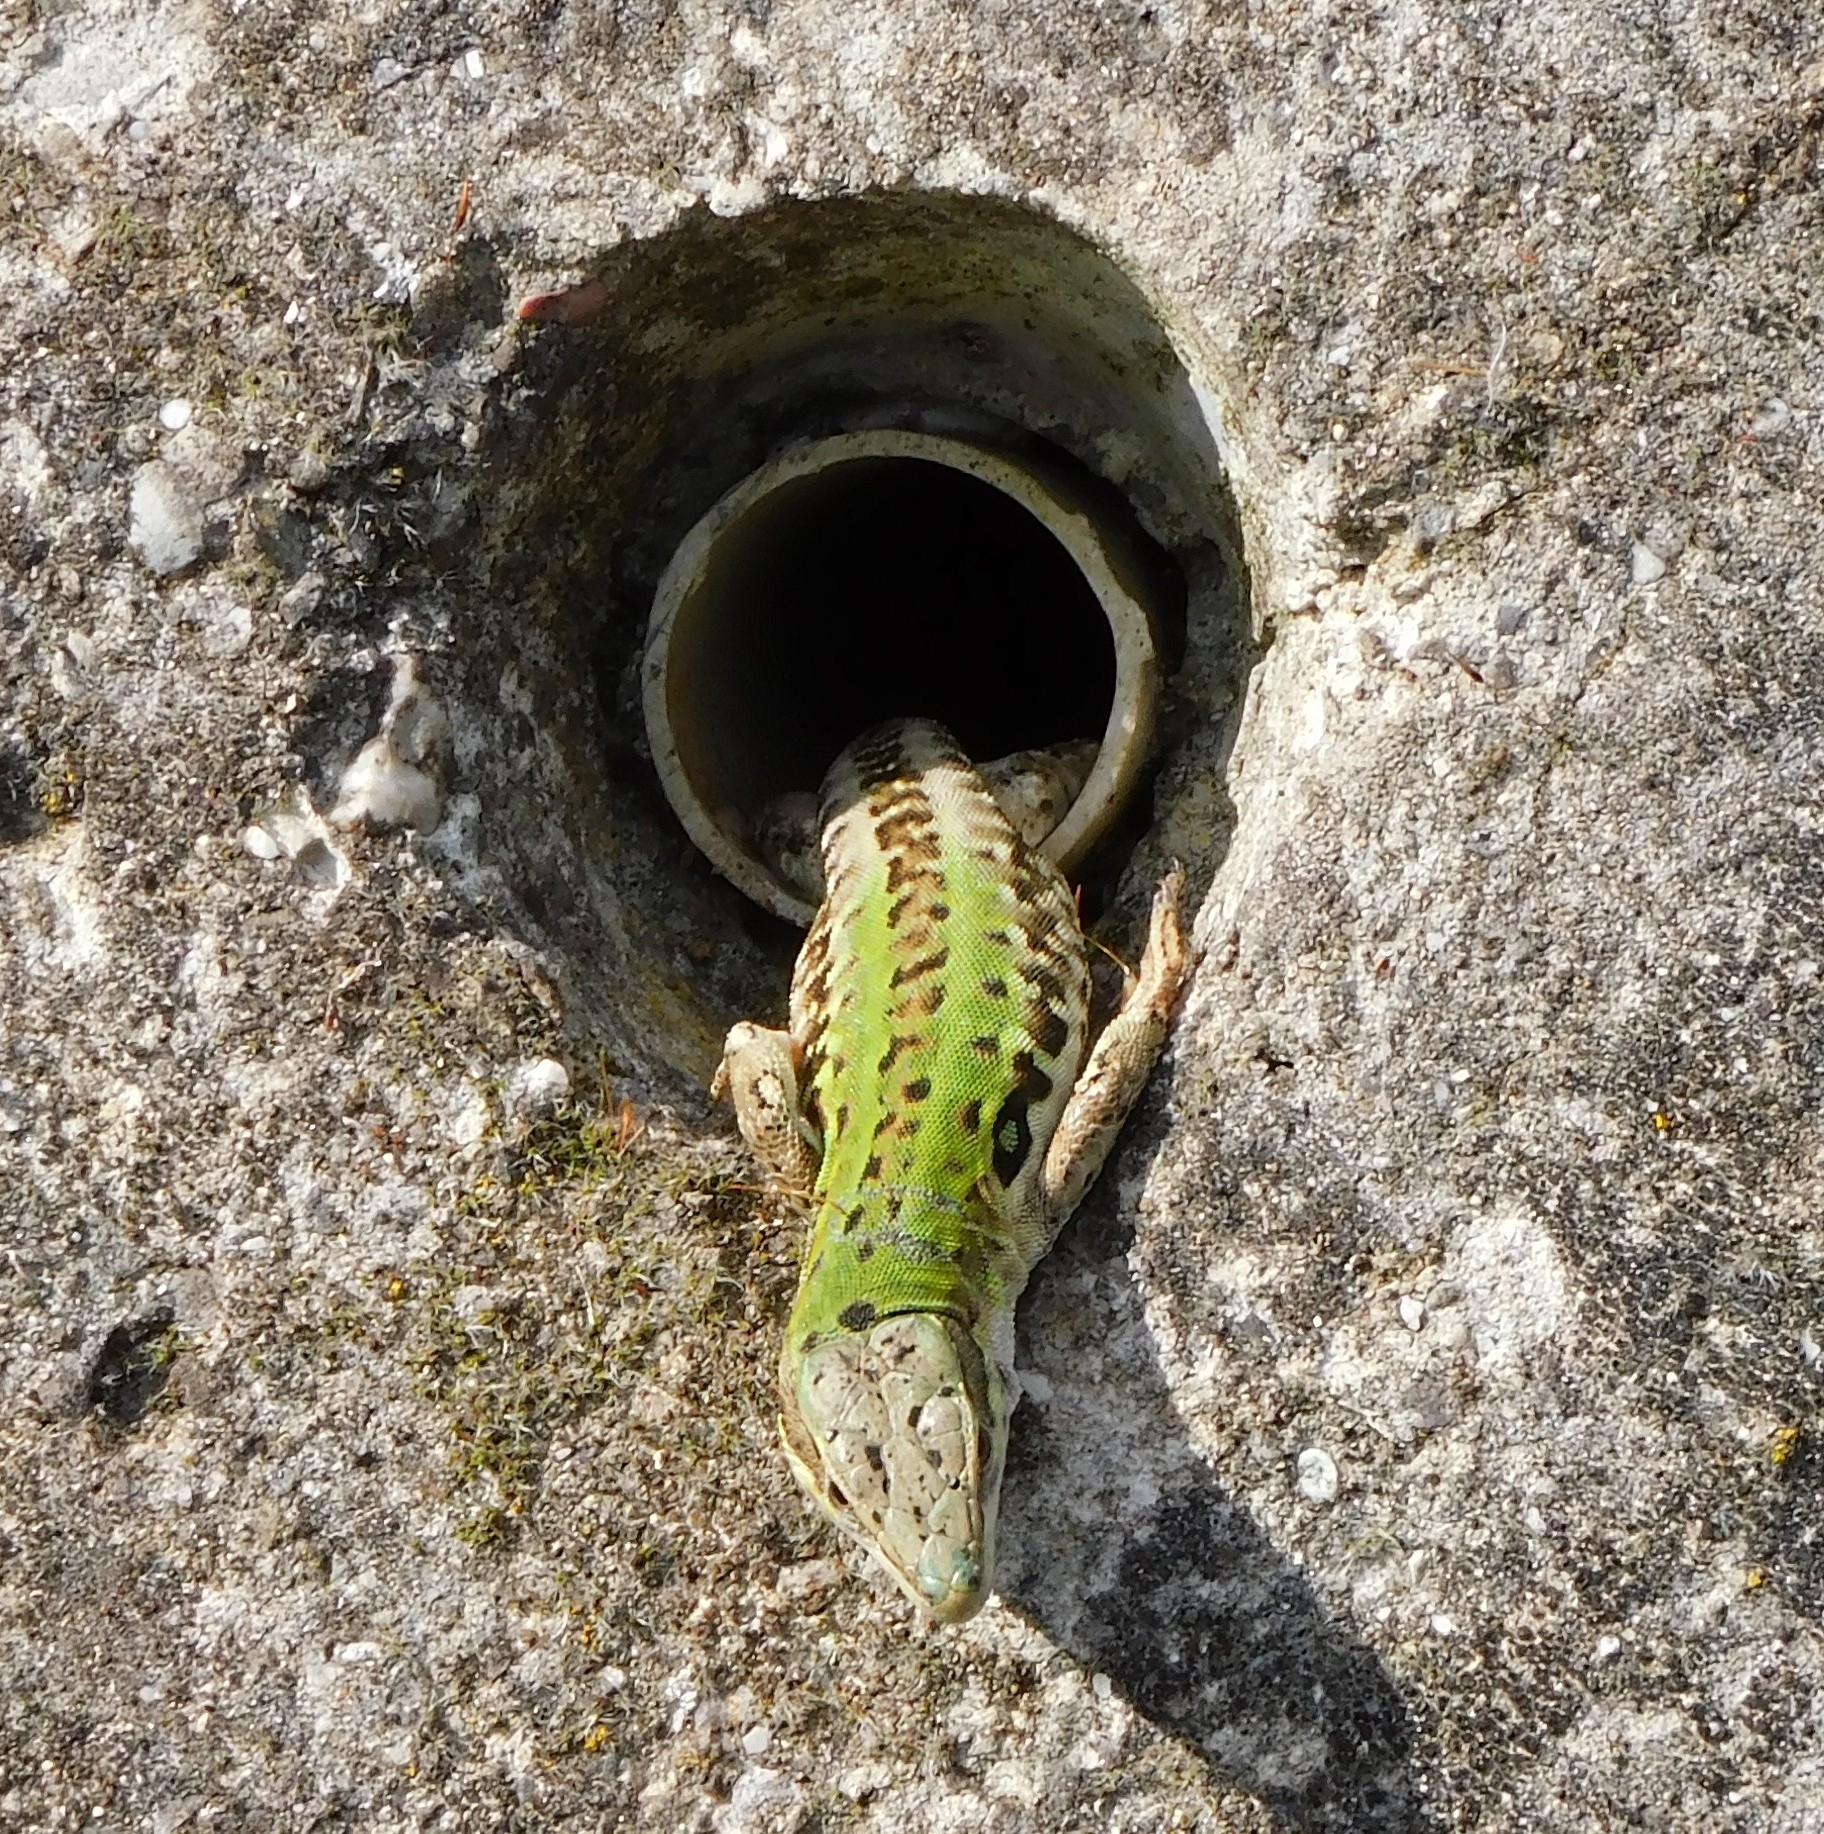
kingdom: Animalia
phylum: Chordata
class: Squamata
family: Lacertidae
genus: Podarcis
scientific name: Podarcis siculus
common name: Italian wall lizard
